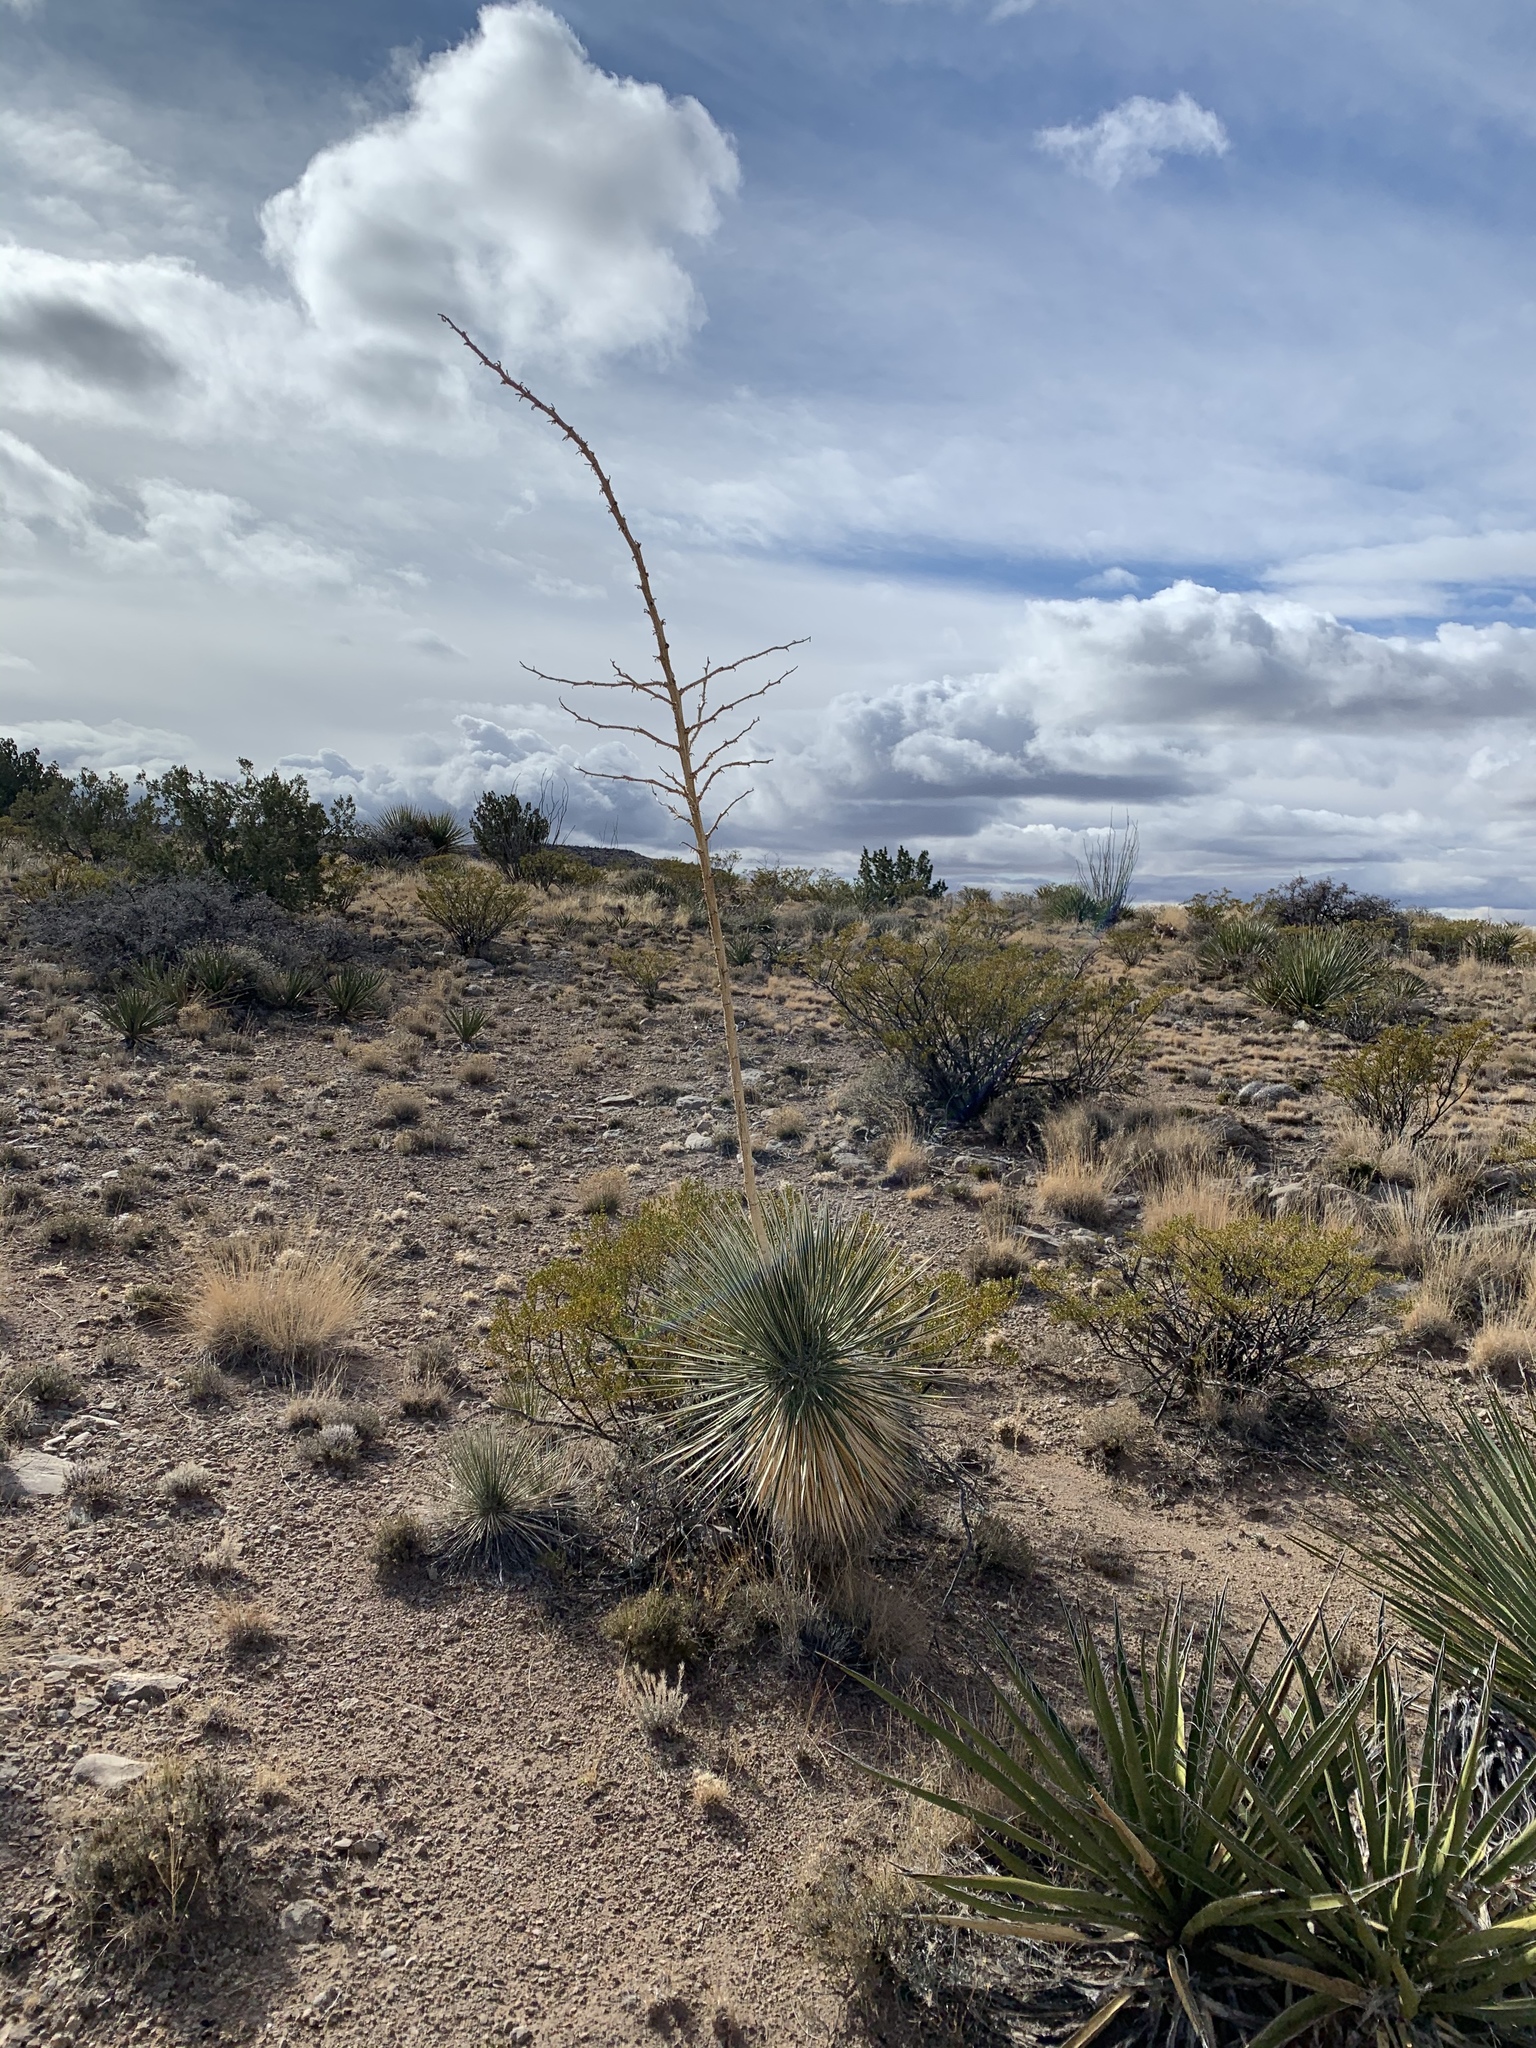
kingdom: Plantae
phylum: Tracheophyta
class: Liliopsida
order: Asparagales
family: Asparagaceae
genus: Yucca
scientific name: Yucca elata
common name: Palmella
